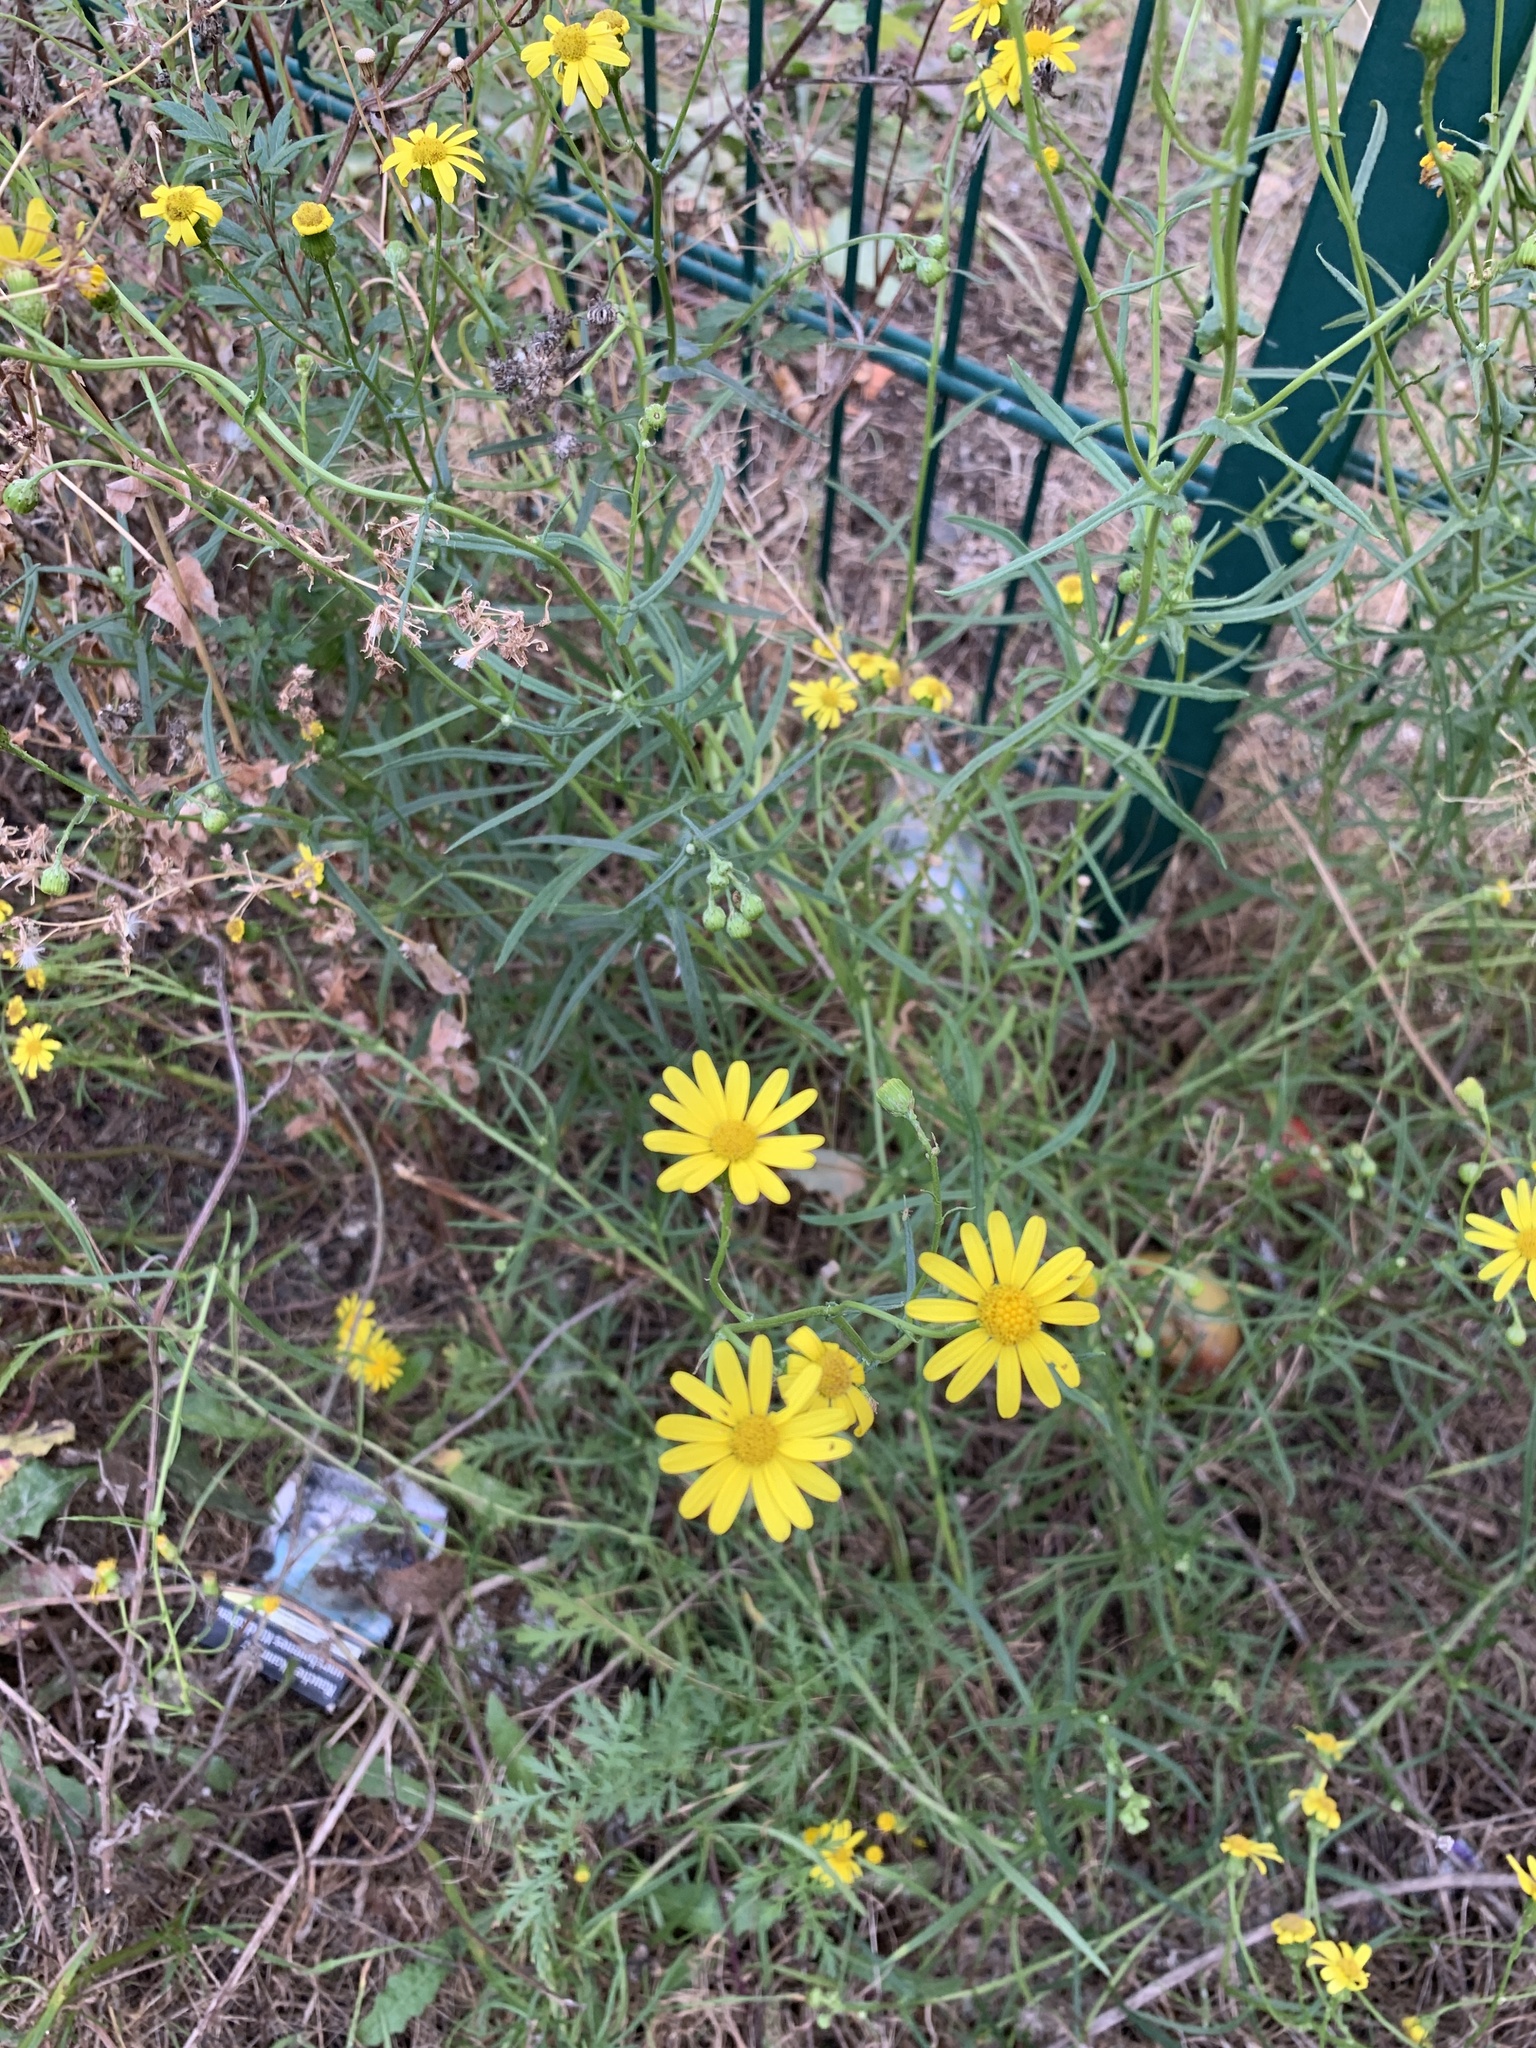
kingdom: Plantae
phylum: Tracheophyta
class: Magnoliopsida
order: Asterales
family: Asteraceae
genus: Senecio
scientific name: Senecio inaequidens
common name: Narrow-leaved ragwort
